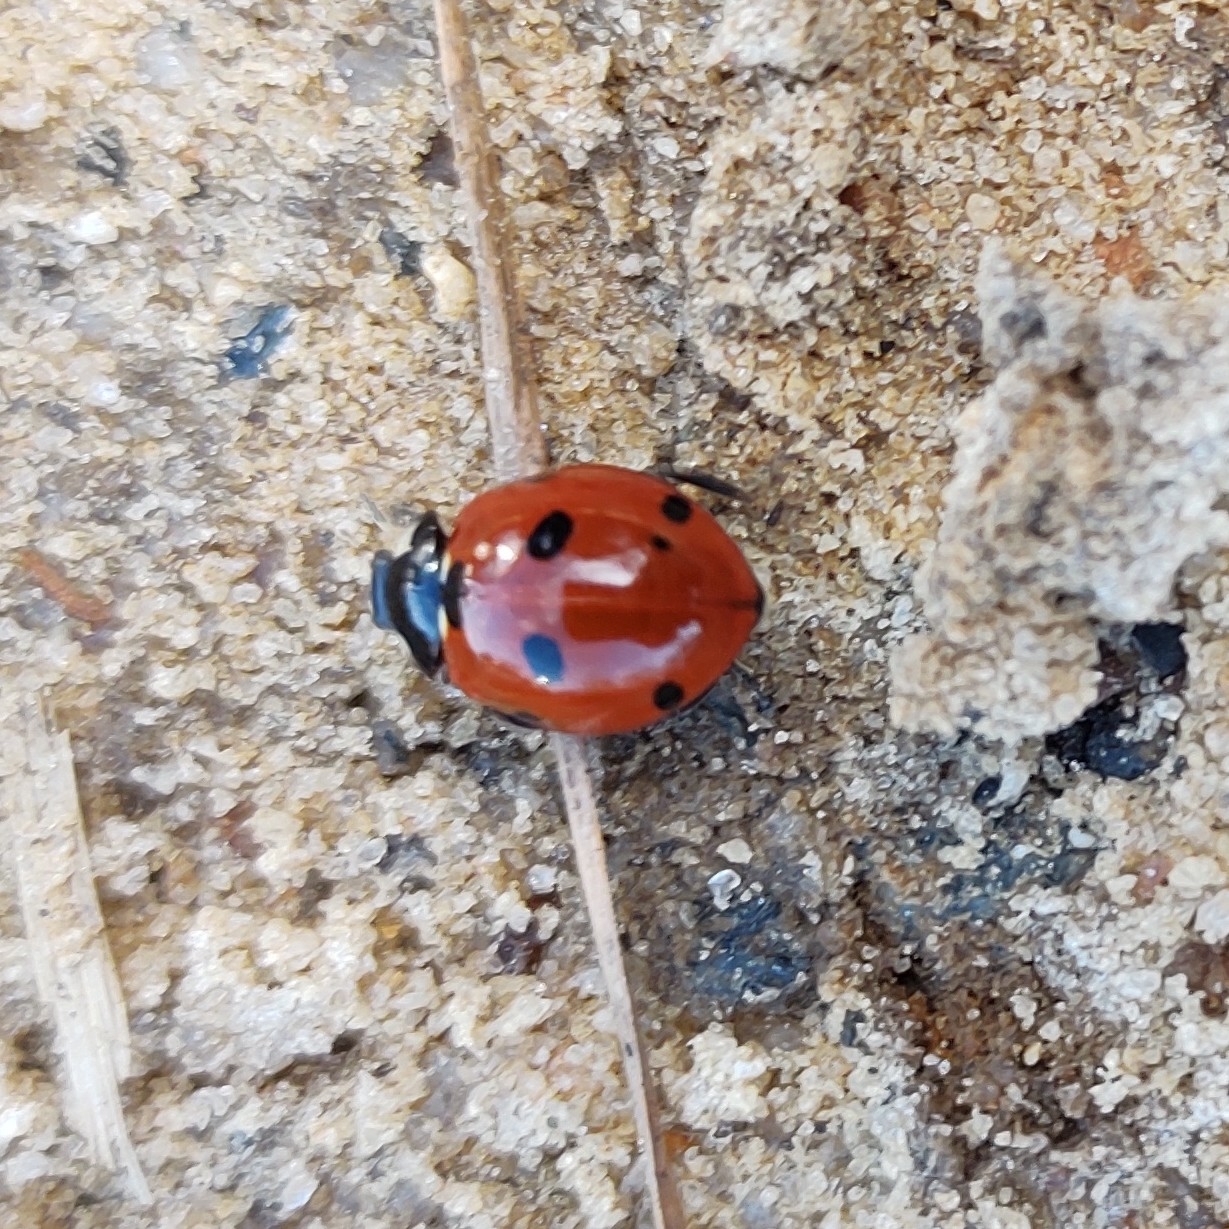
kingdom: Animalia
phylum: Arthropoda
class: Insecta
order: Coleoptera
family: Coccinellidae
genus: Coccinella
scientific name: Coccinella septempunctata
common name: Sevenspotted lady beetle
